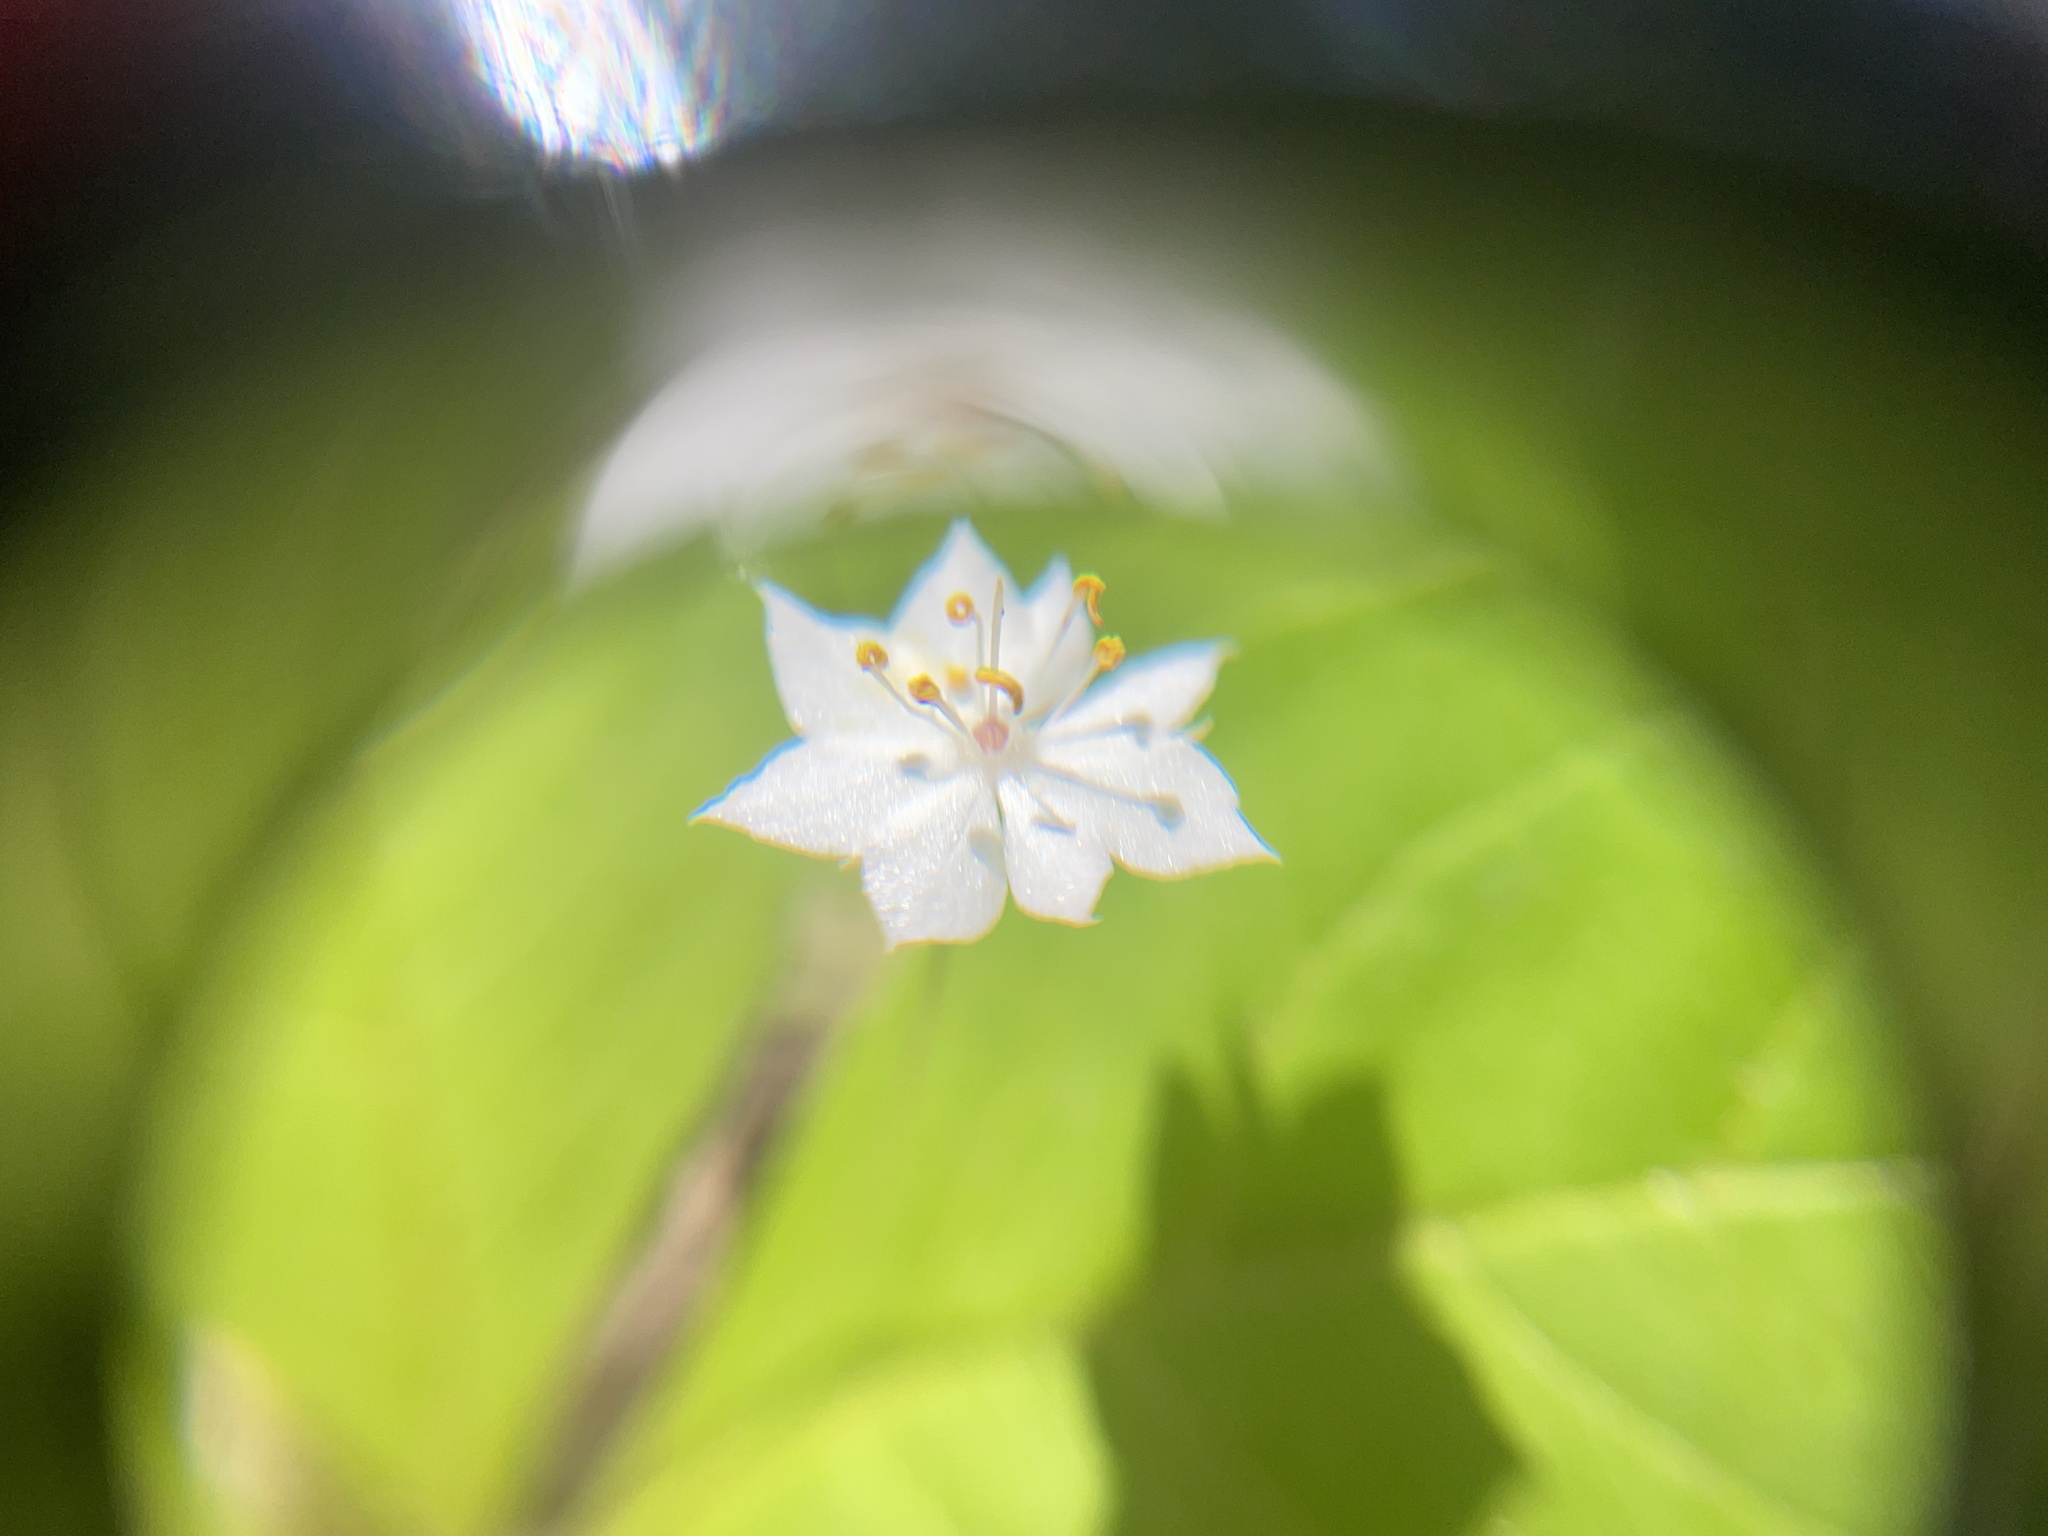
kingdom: Plantae
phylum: Tracheophyta
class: Magnoliopsida
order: Ericales
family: Primulaceae
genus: Lysimachia
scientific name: Lysimachia latifolia
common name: Pacific starflower
